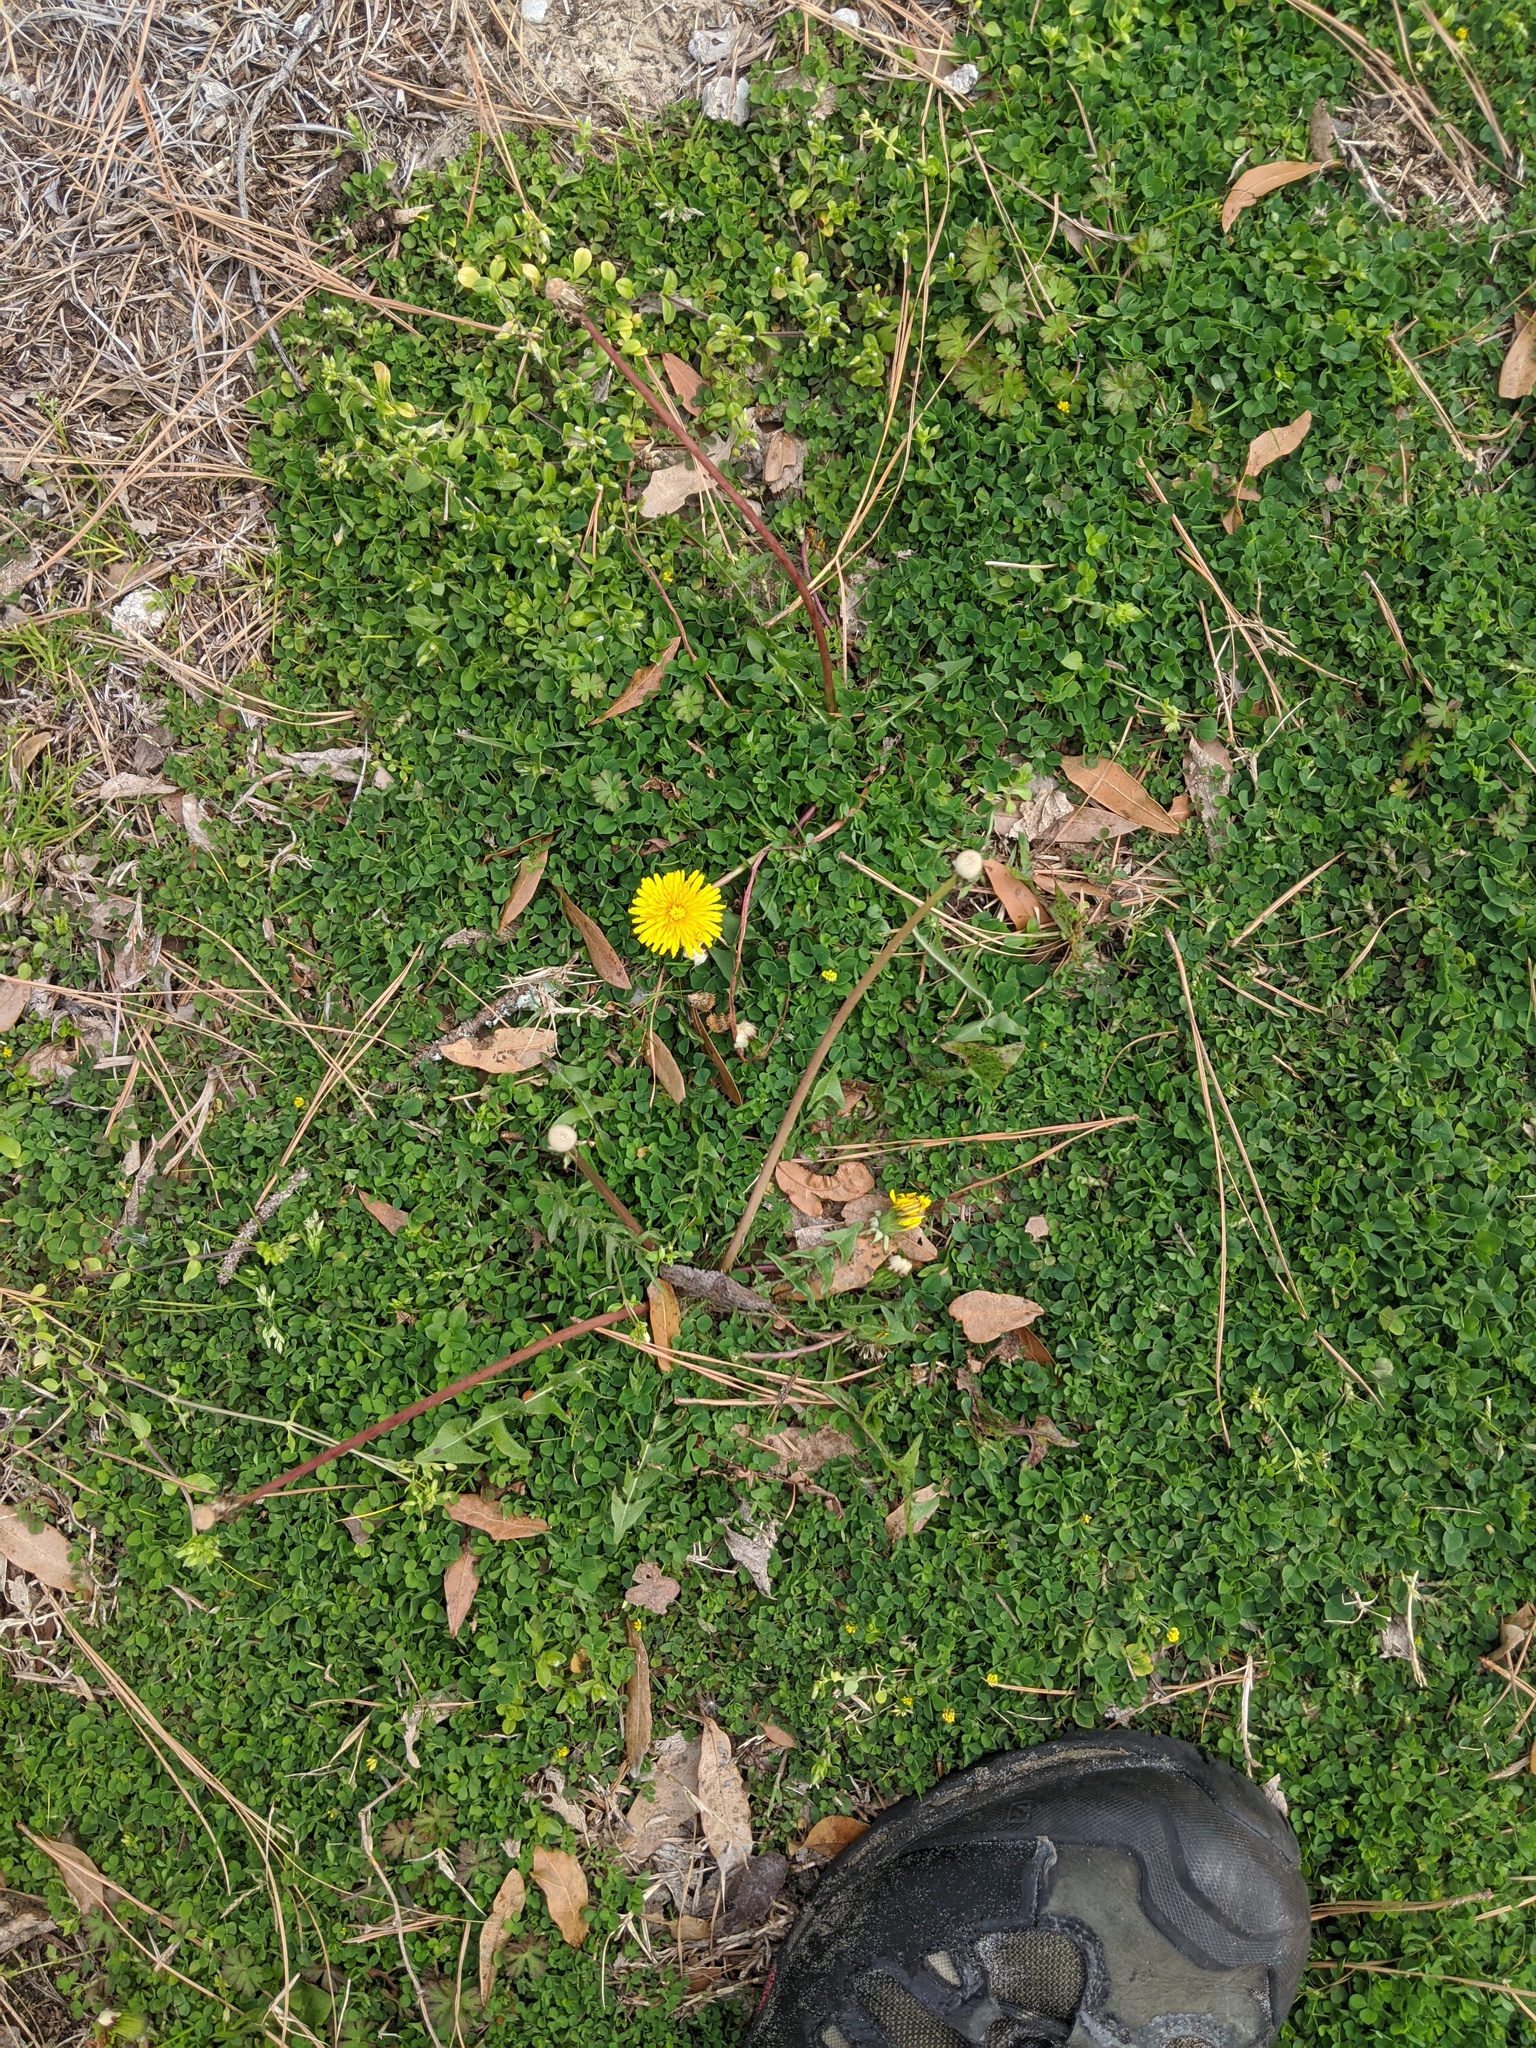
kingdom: Plantae
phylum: Tracheophyta
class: Magnoliopsida
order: Asterales
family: Asteraceae
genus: Taraxacum
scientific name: Taraxacum officinale
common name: Common dandelion
